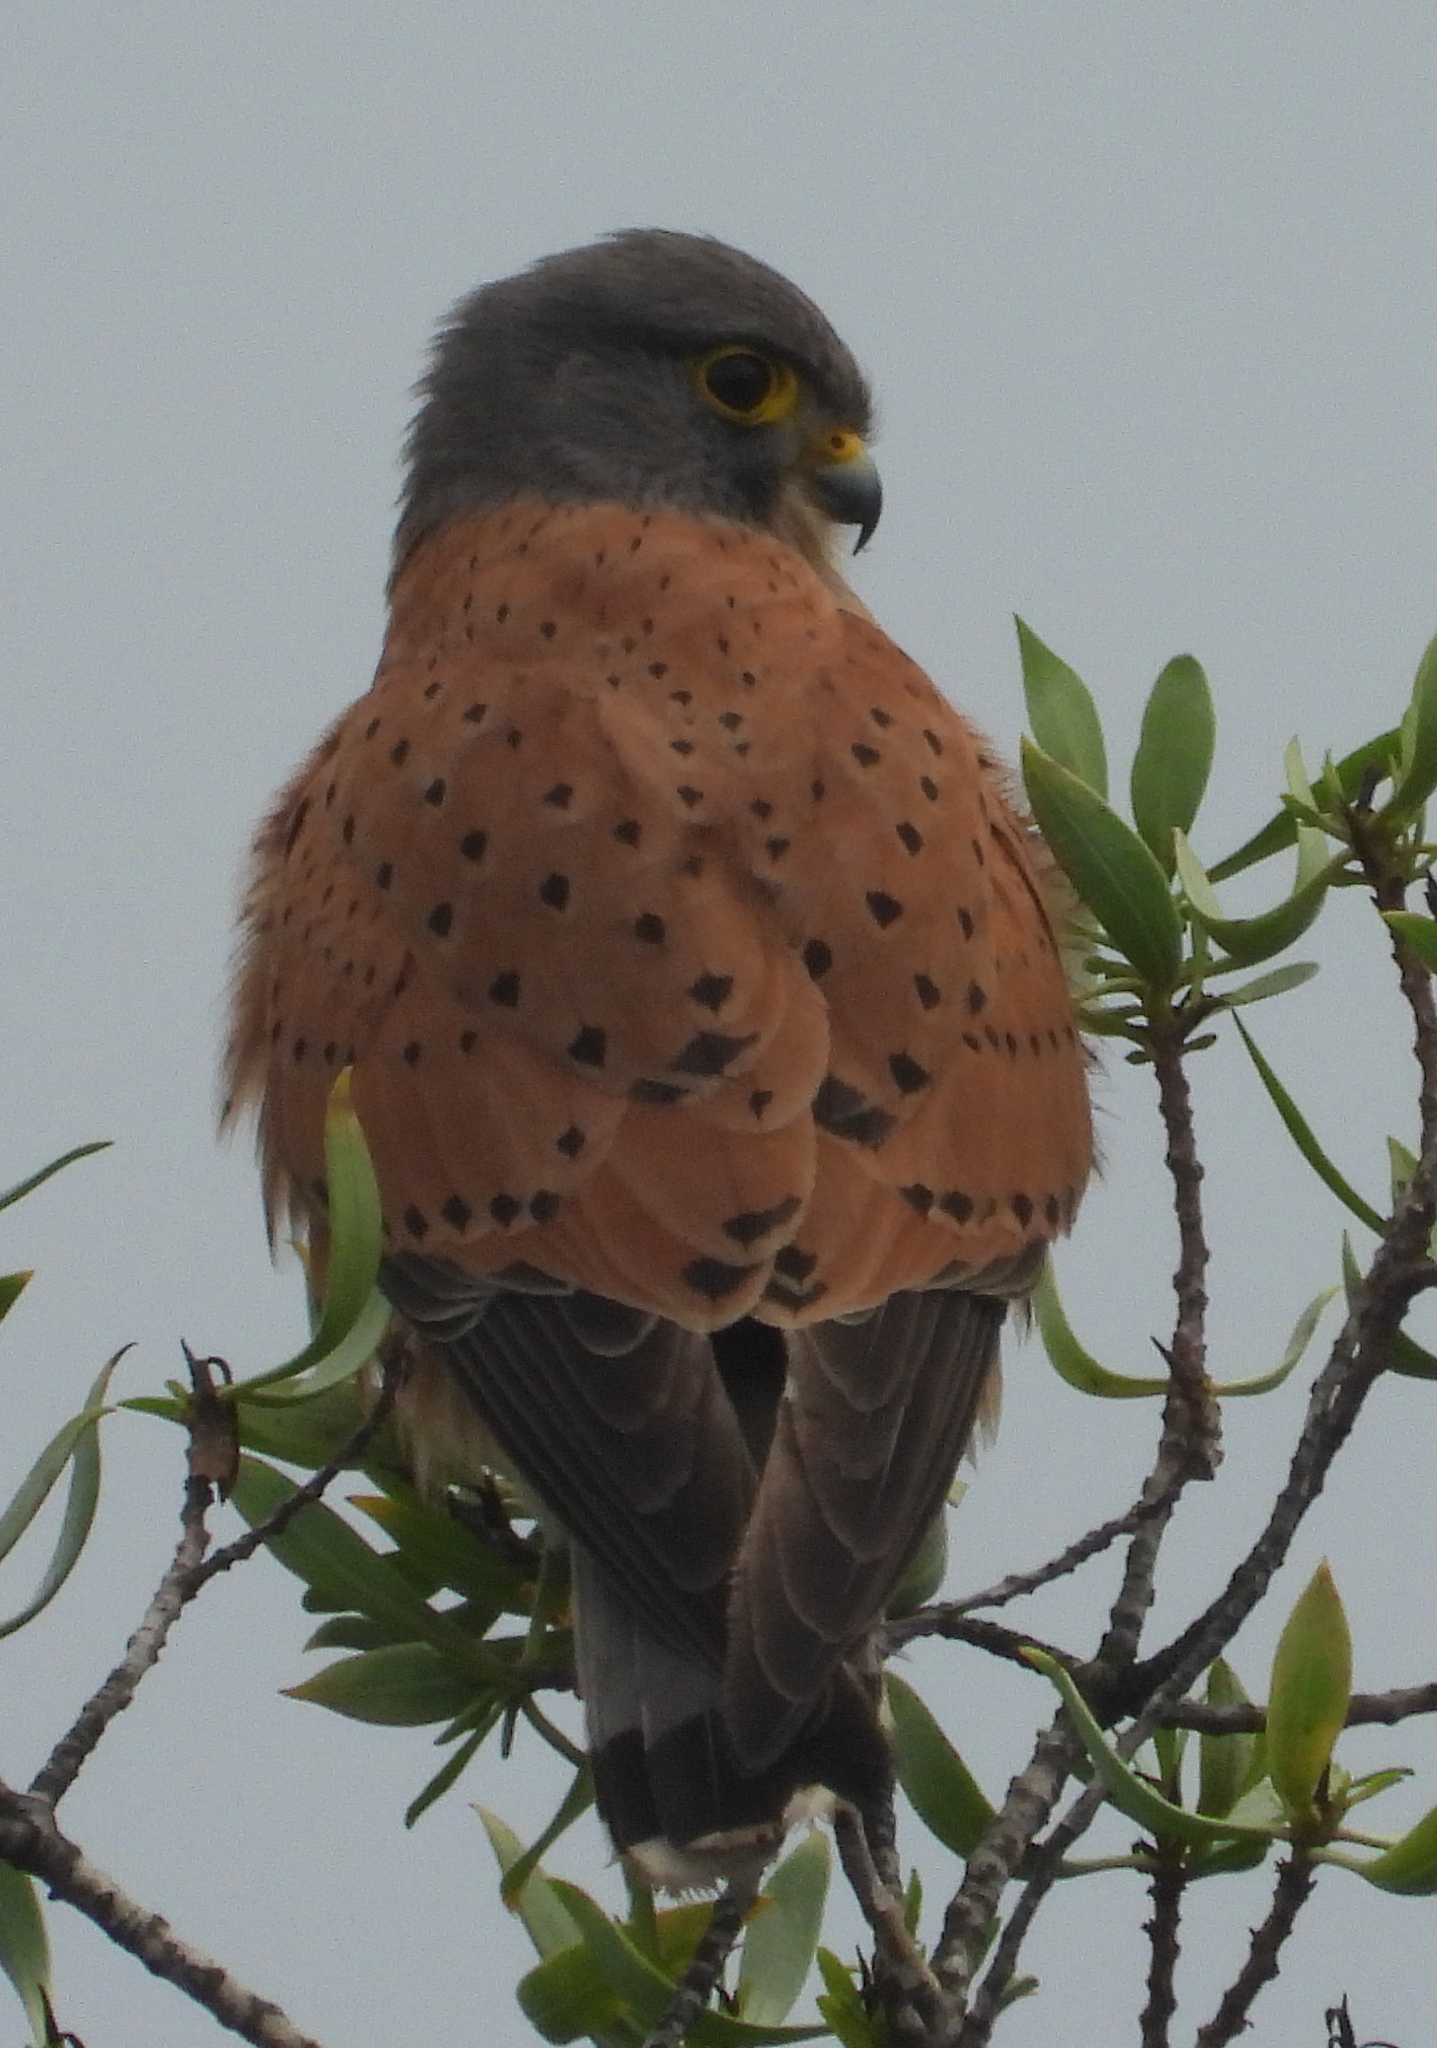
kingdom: Animalia
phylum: Chordata
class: Aves
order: Falconiformes
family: Falconidae
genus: Falco
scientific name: Falco rupicolus
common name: Rock kestrel
